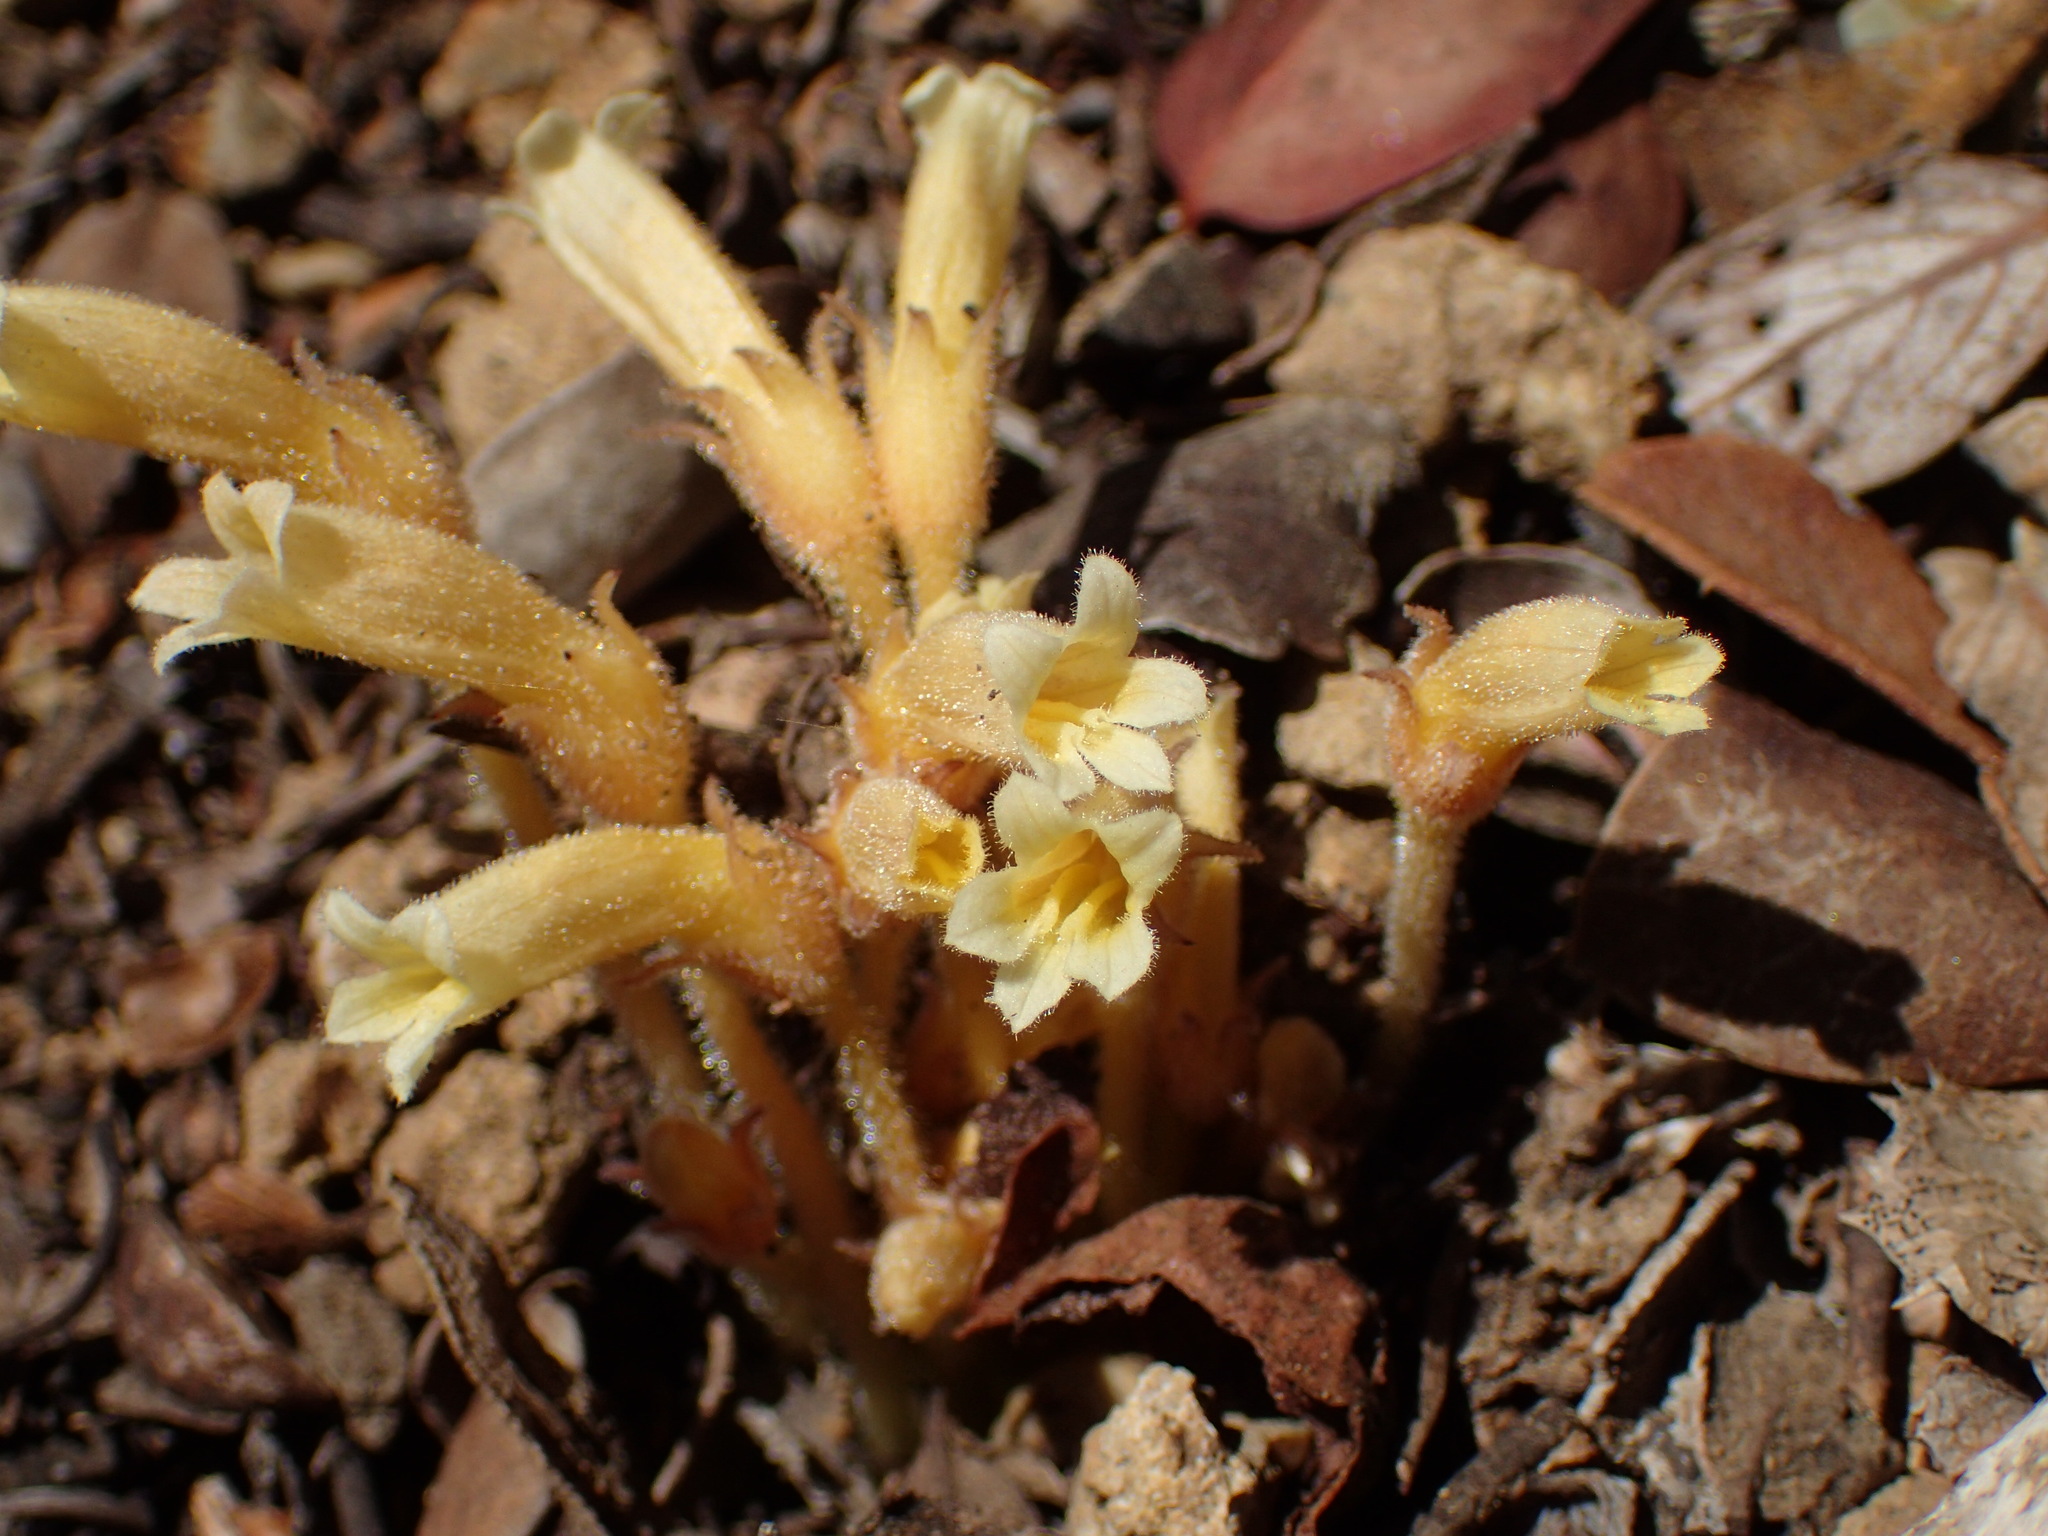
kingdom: Plantae
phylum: Tracheophyta
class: Magnoliopsida
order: Lamiales
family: Orobanchaceae
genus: Aphyllon
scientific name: Aphyllon franciscanum
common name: San francisco broomrape
